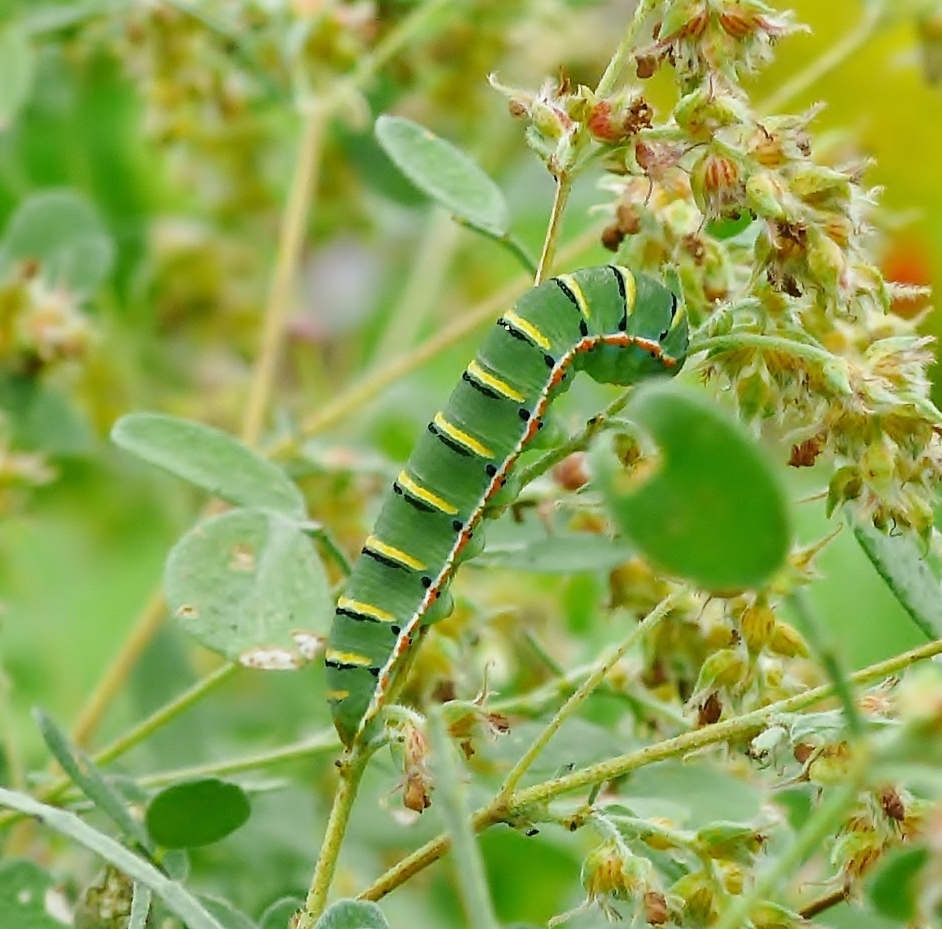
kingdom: Animalia
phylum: Arthropoda
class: Insecta
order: Lepidoptera
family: Pieridae
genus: Zerene
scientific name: Zerene cesonia
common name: Southern dogface
